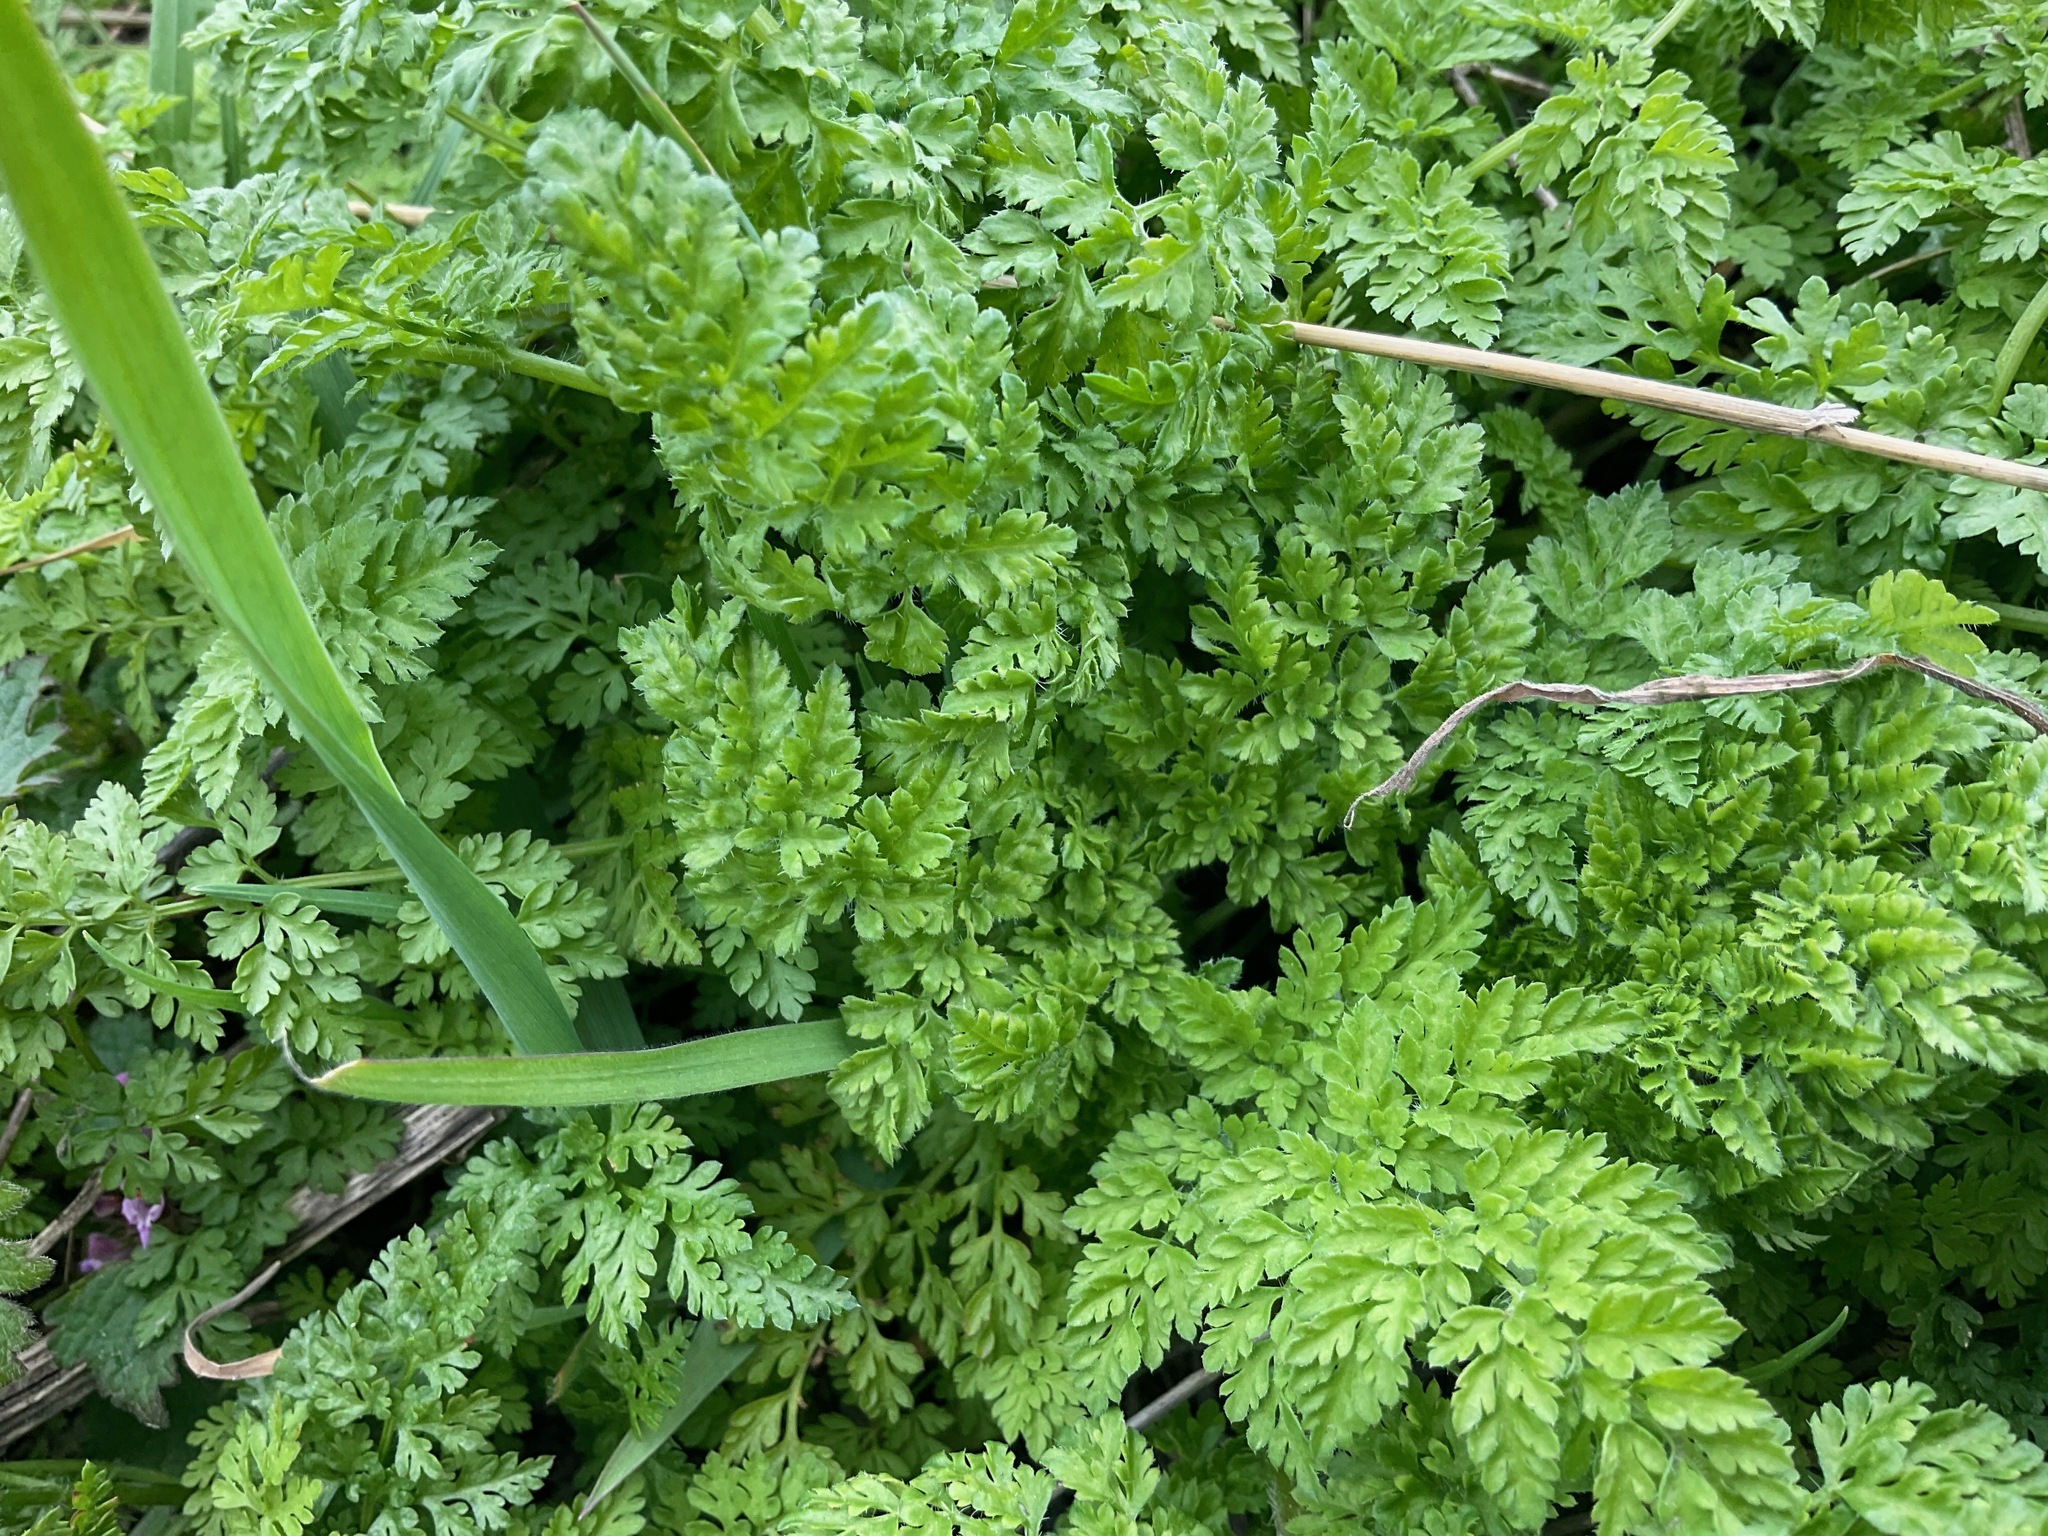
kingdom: Plantae
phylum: Tracheophyta
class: Magnoliopsida
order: Apiales
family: Apiaceae
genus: Anthriscus
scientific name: Anthriscus caucalis
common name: Bur chervil
